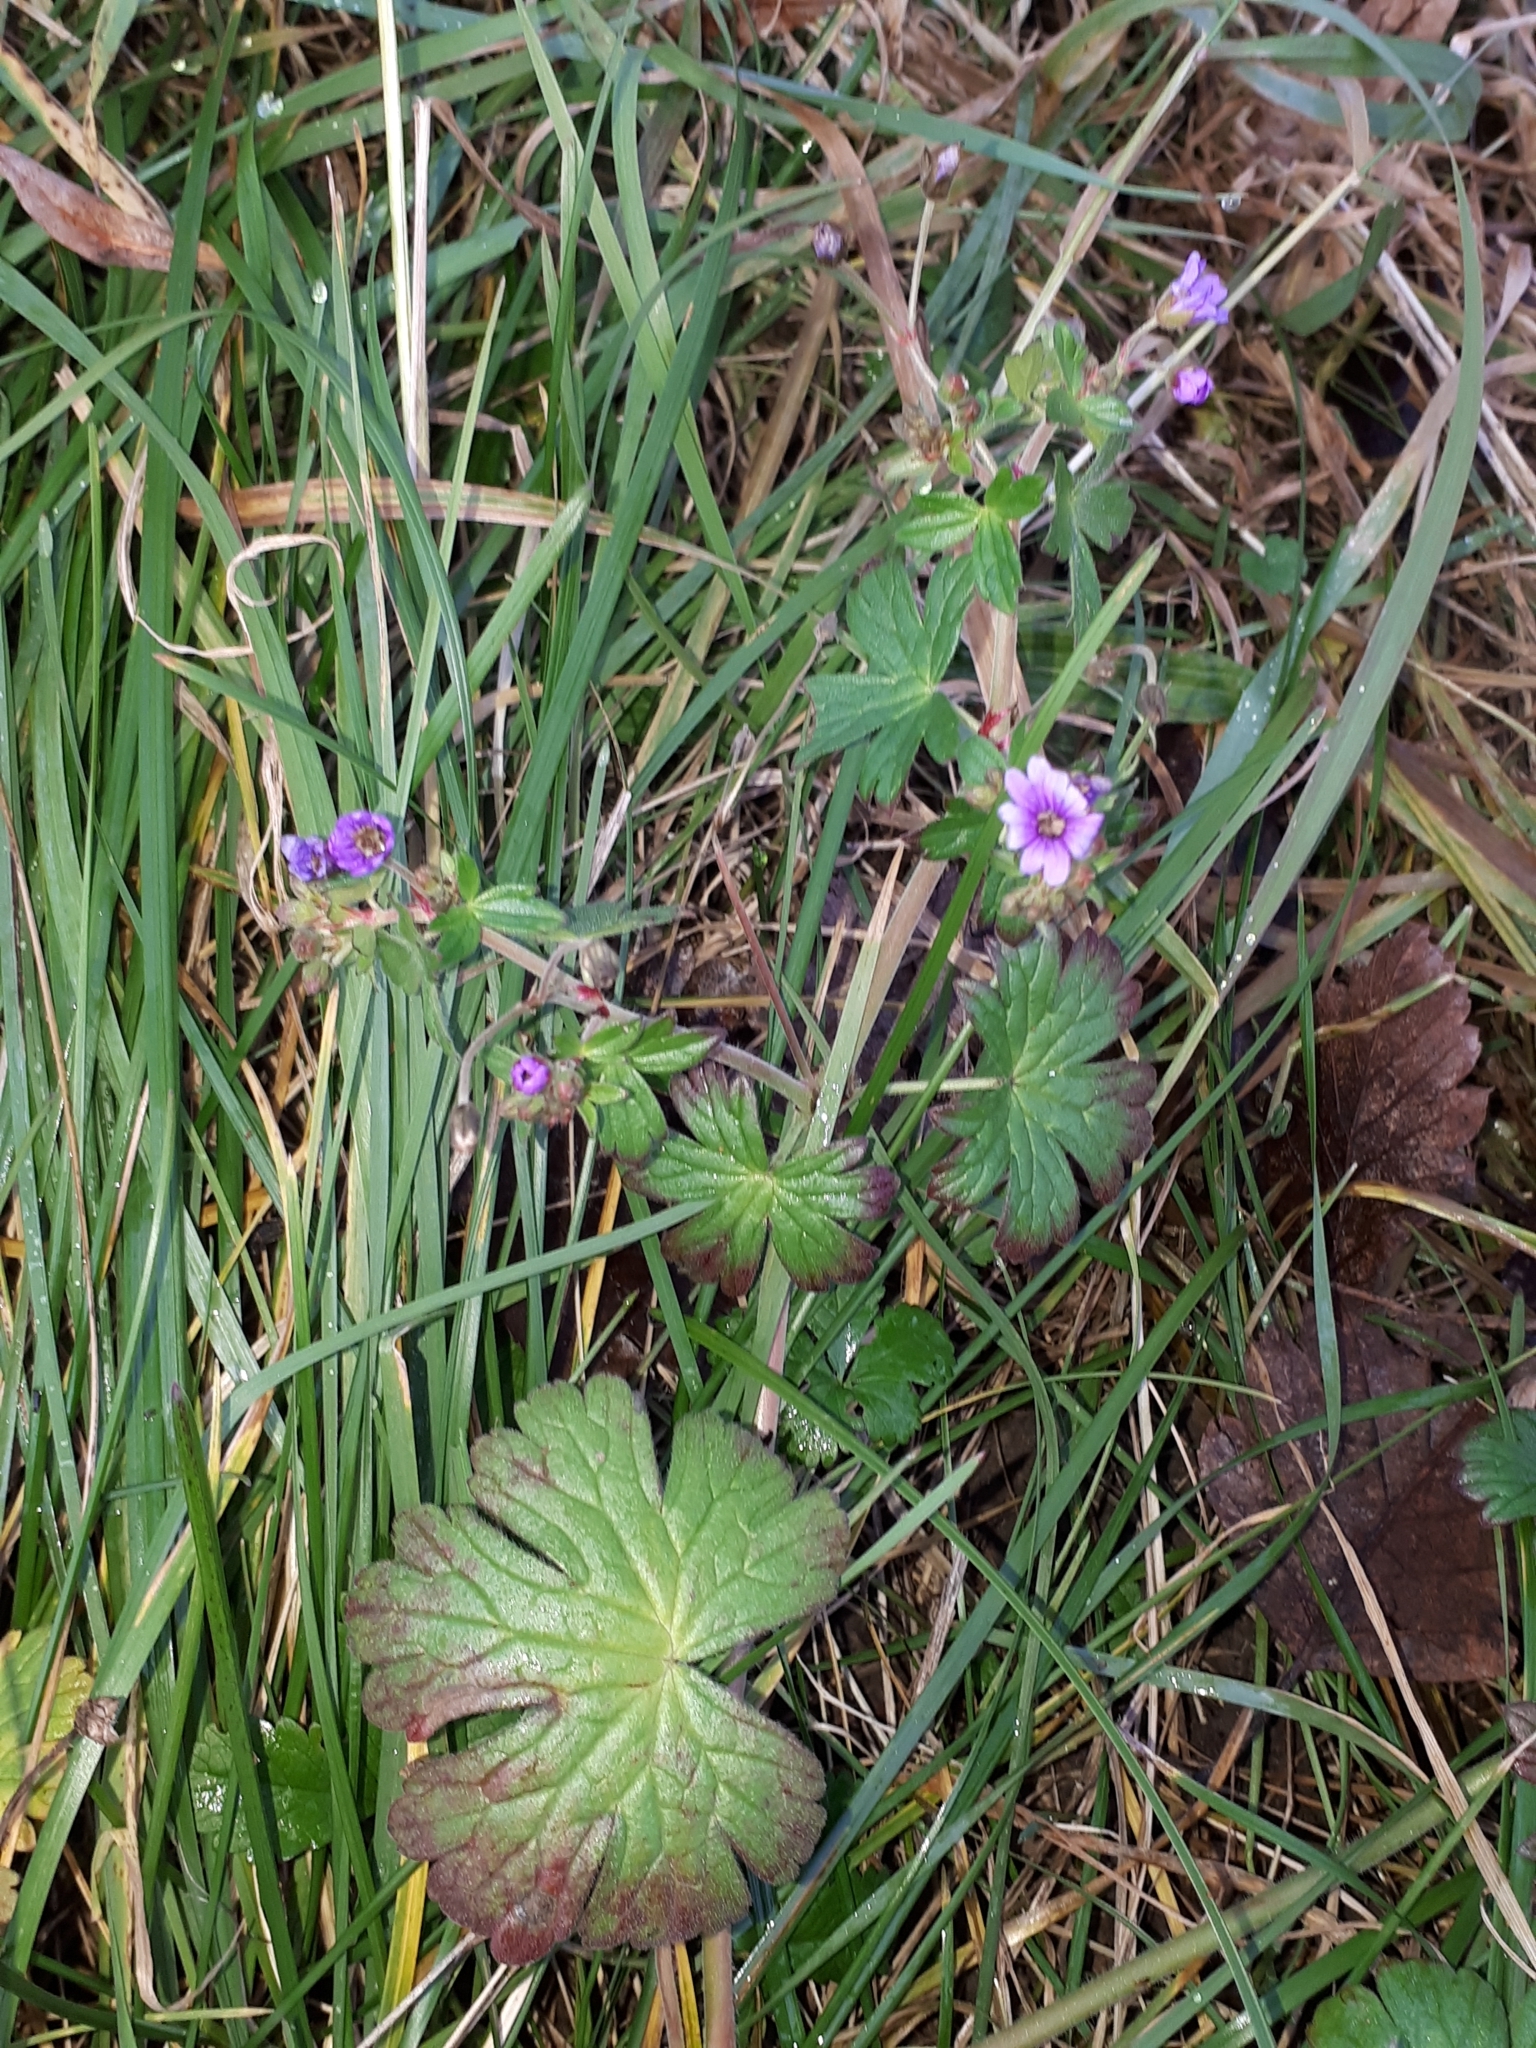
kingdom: Plantae
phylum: Tracheophyta
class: Magnoliopsida
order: Geraniales
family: Geraniaceae
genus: Geranium
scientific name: Geranium pyrenaicum
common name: Hedgerow crane's-bill
